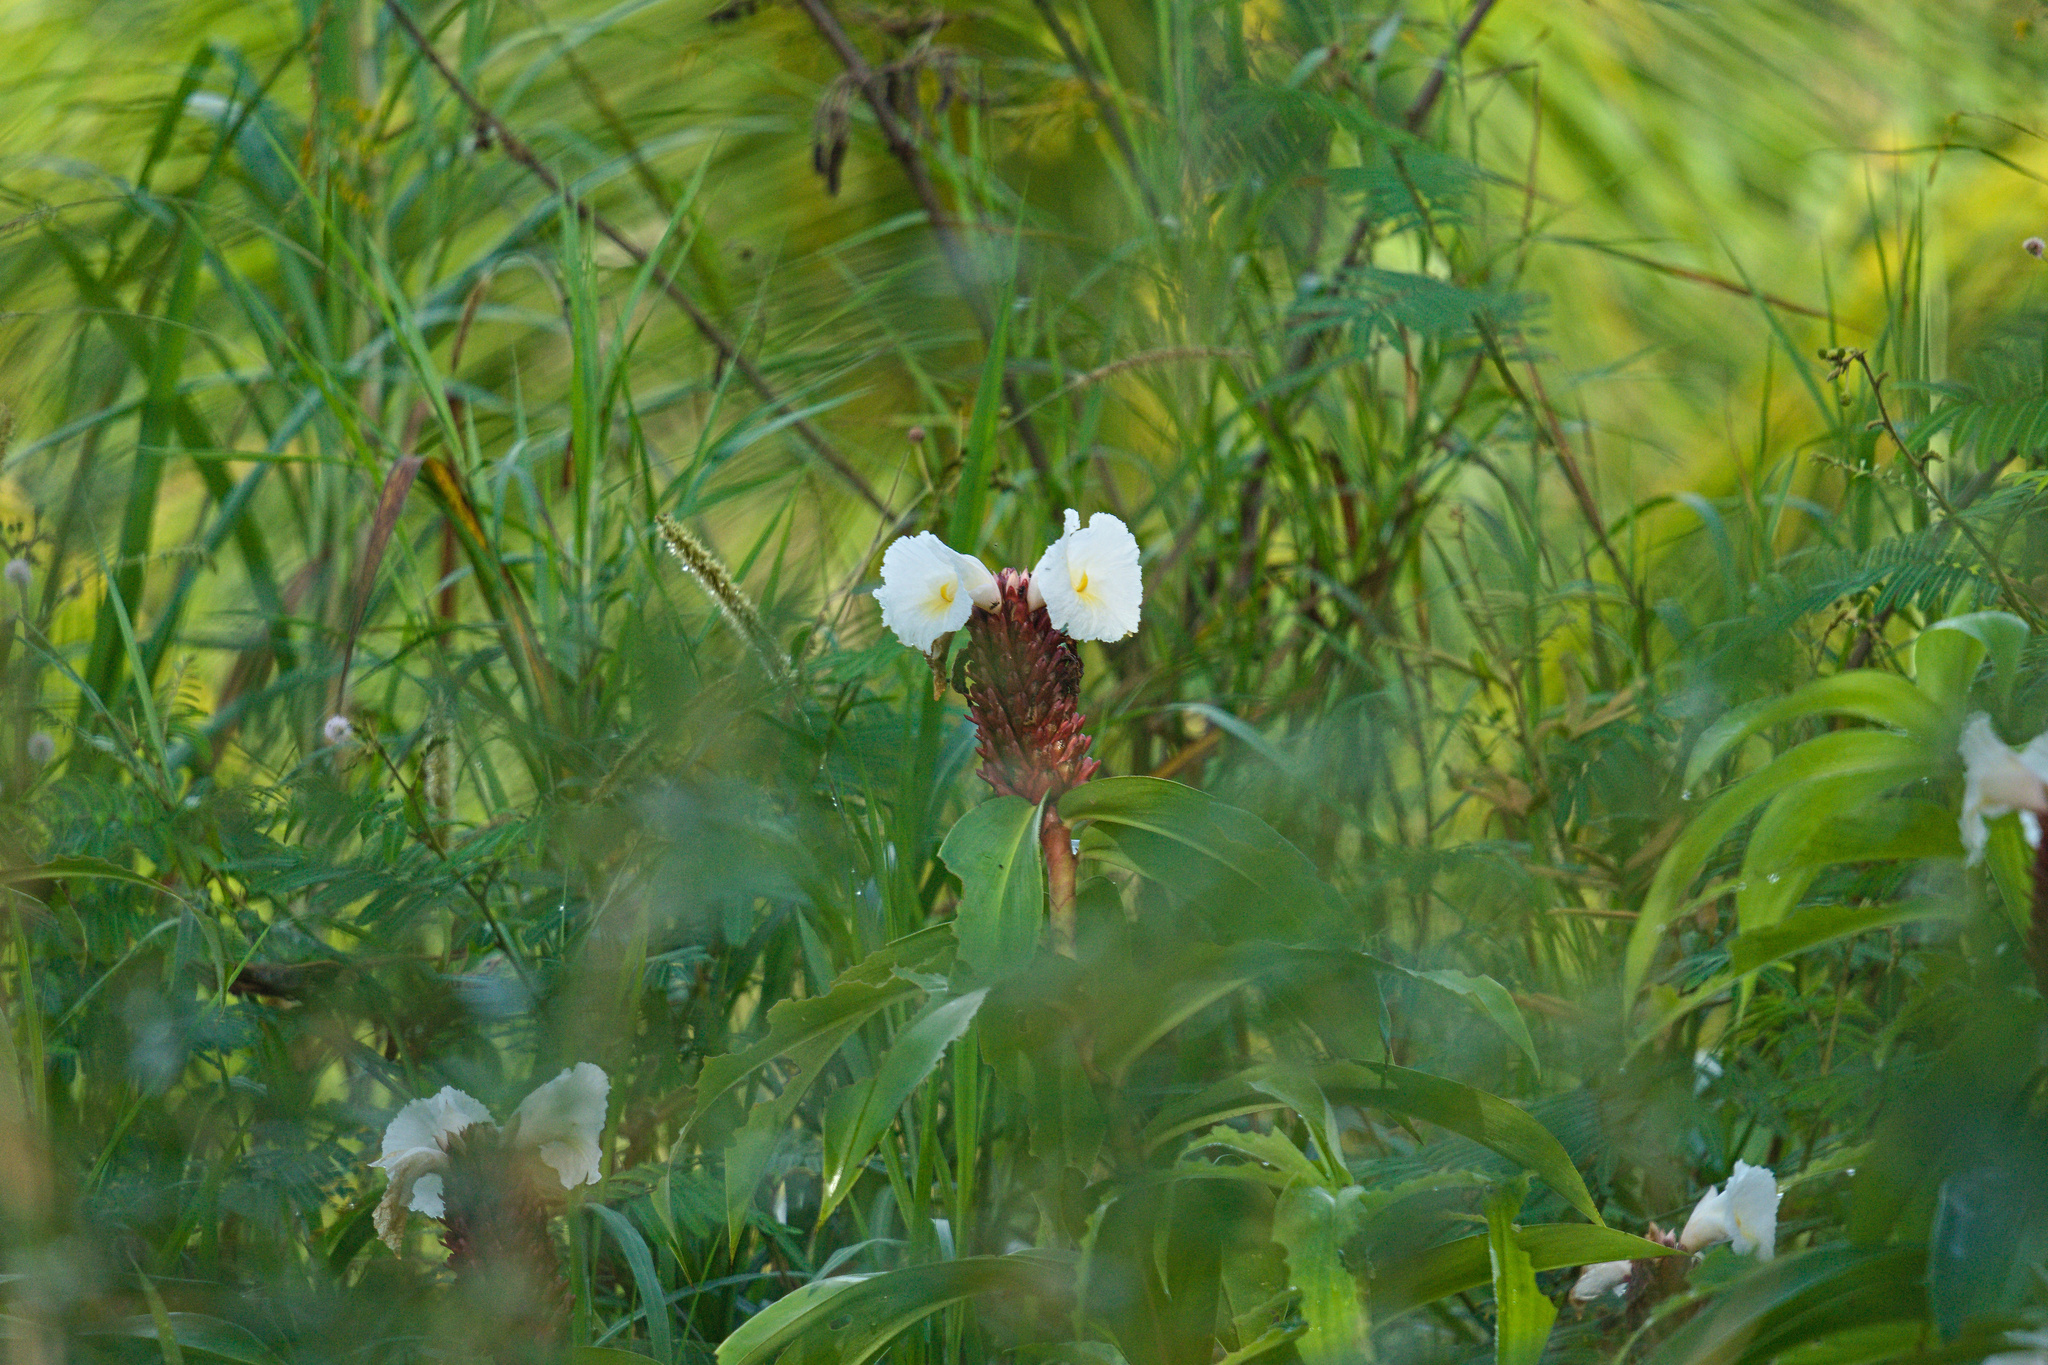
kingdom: Plantae
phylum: Tracheophyta
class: Liliopsida
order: Zingiberales
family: Costaceae
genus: Hellenia
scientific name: Hellenia speciosa
